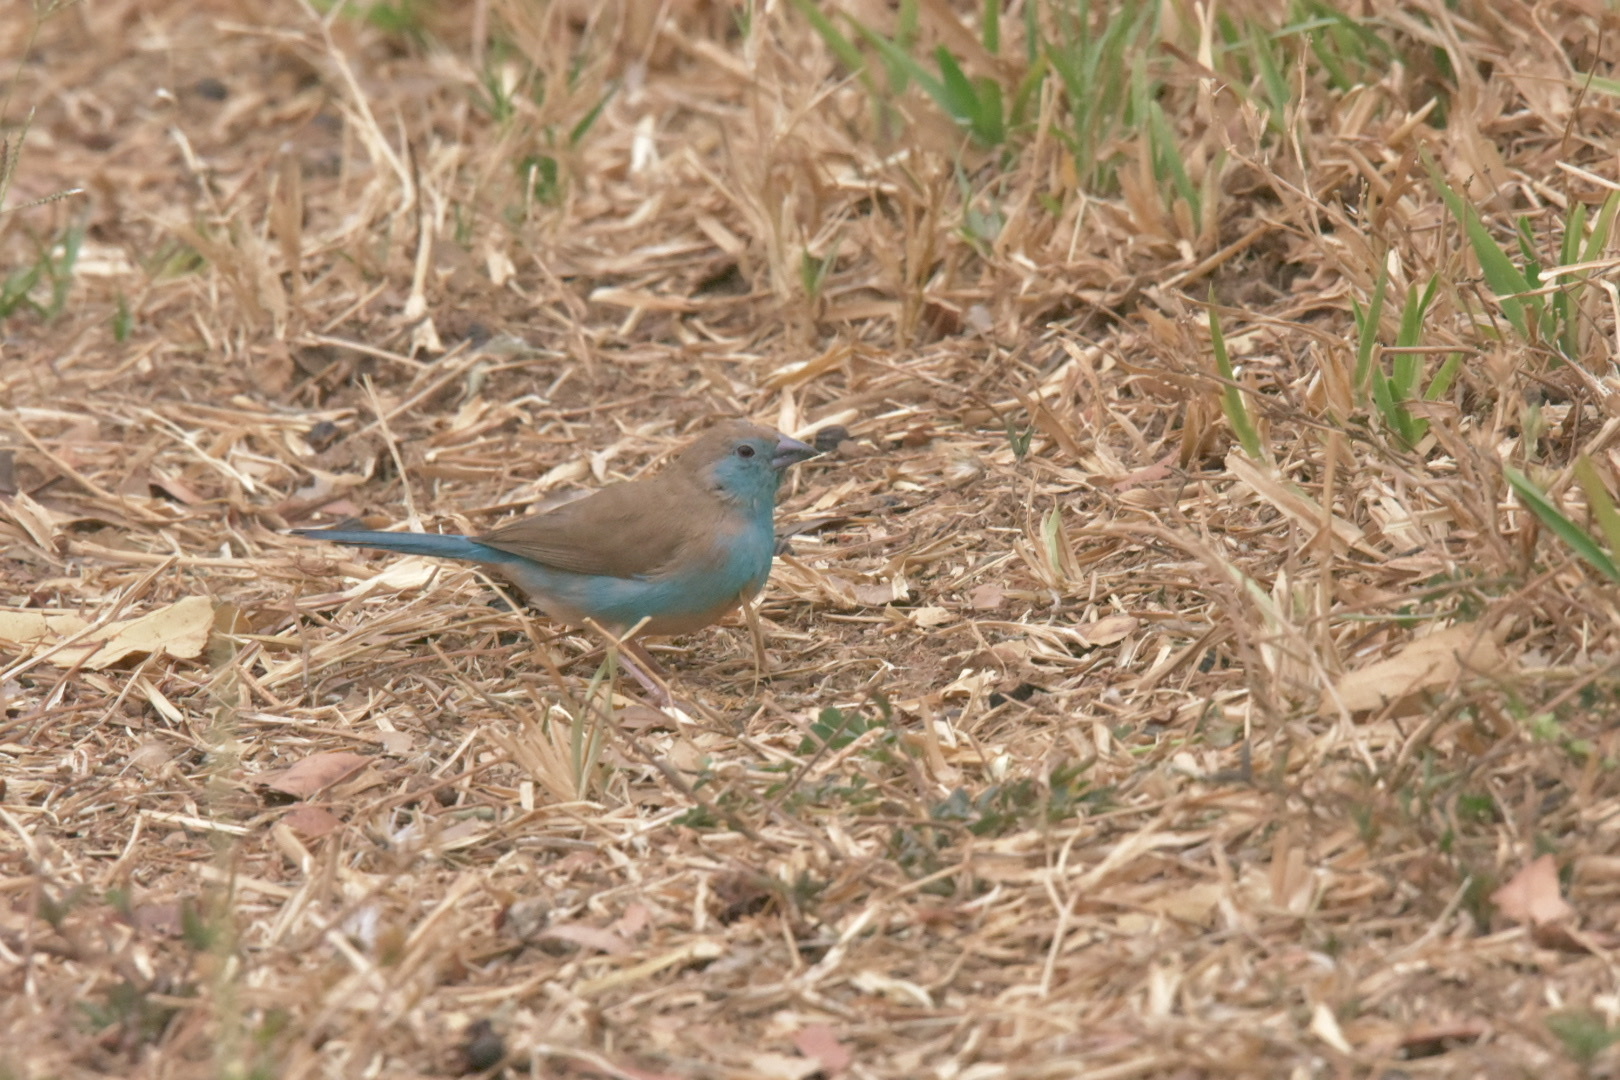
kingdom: Animalia
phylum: Chordata
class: Aves
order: Passeriformes
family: Estrildidae
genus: Uraeginthus
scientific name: Uraeginthus angolensis
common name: Blue waxbill
